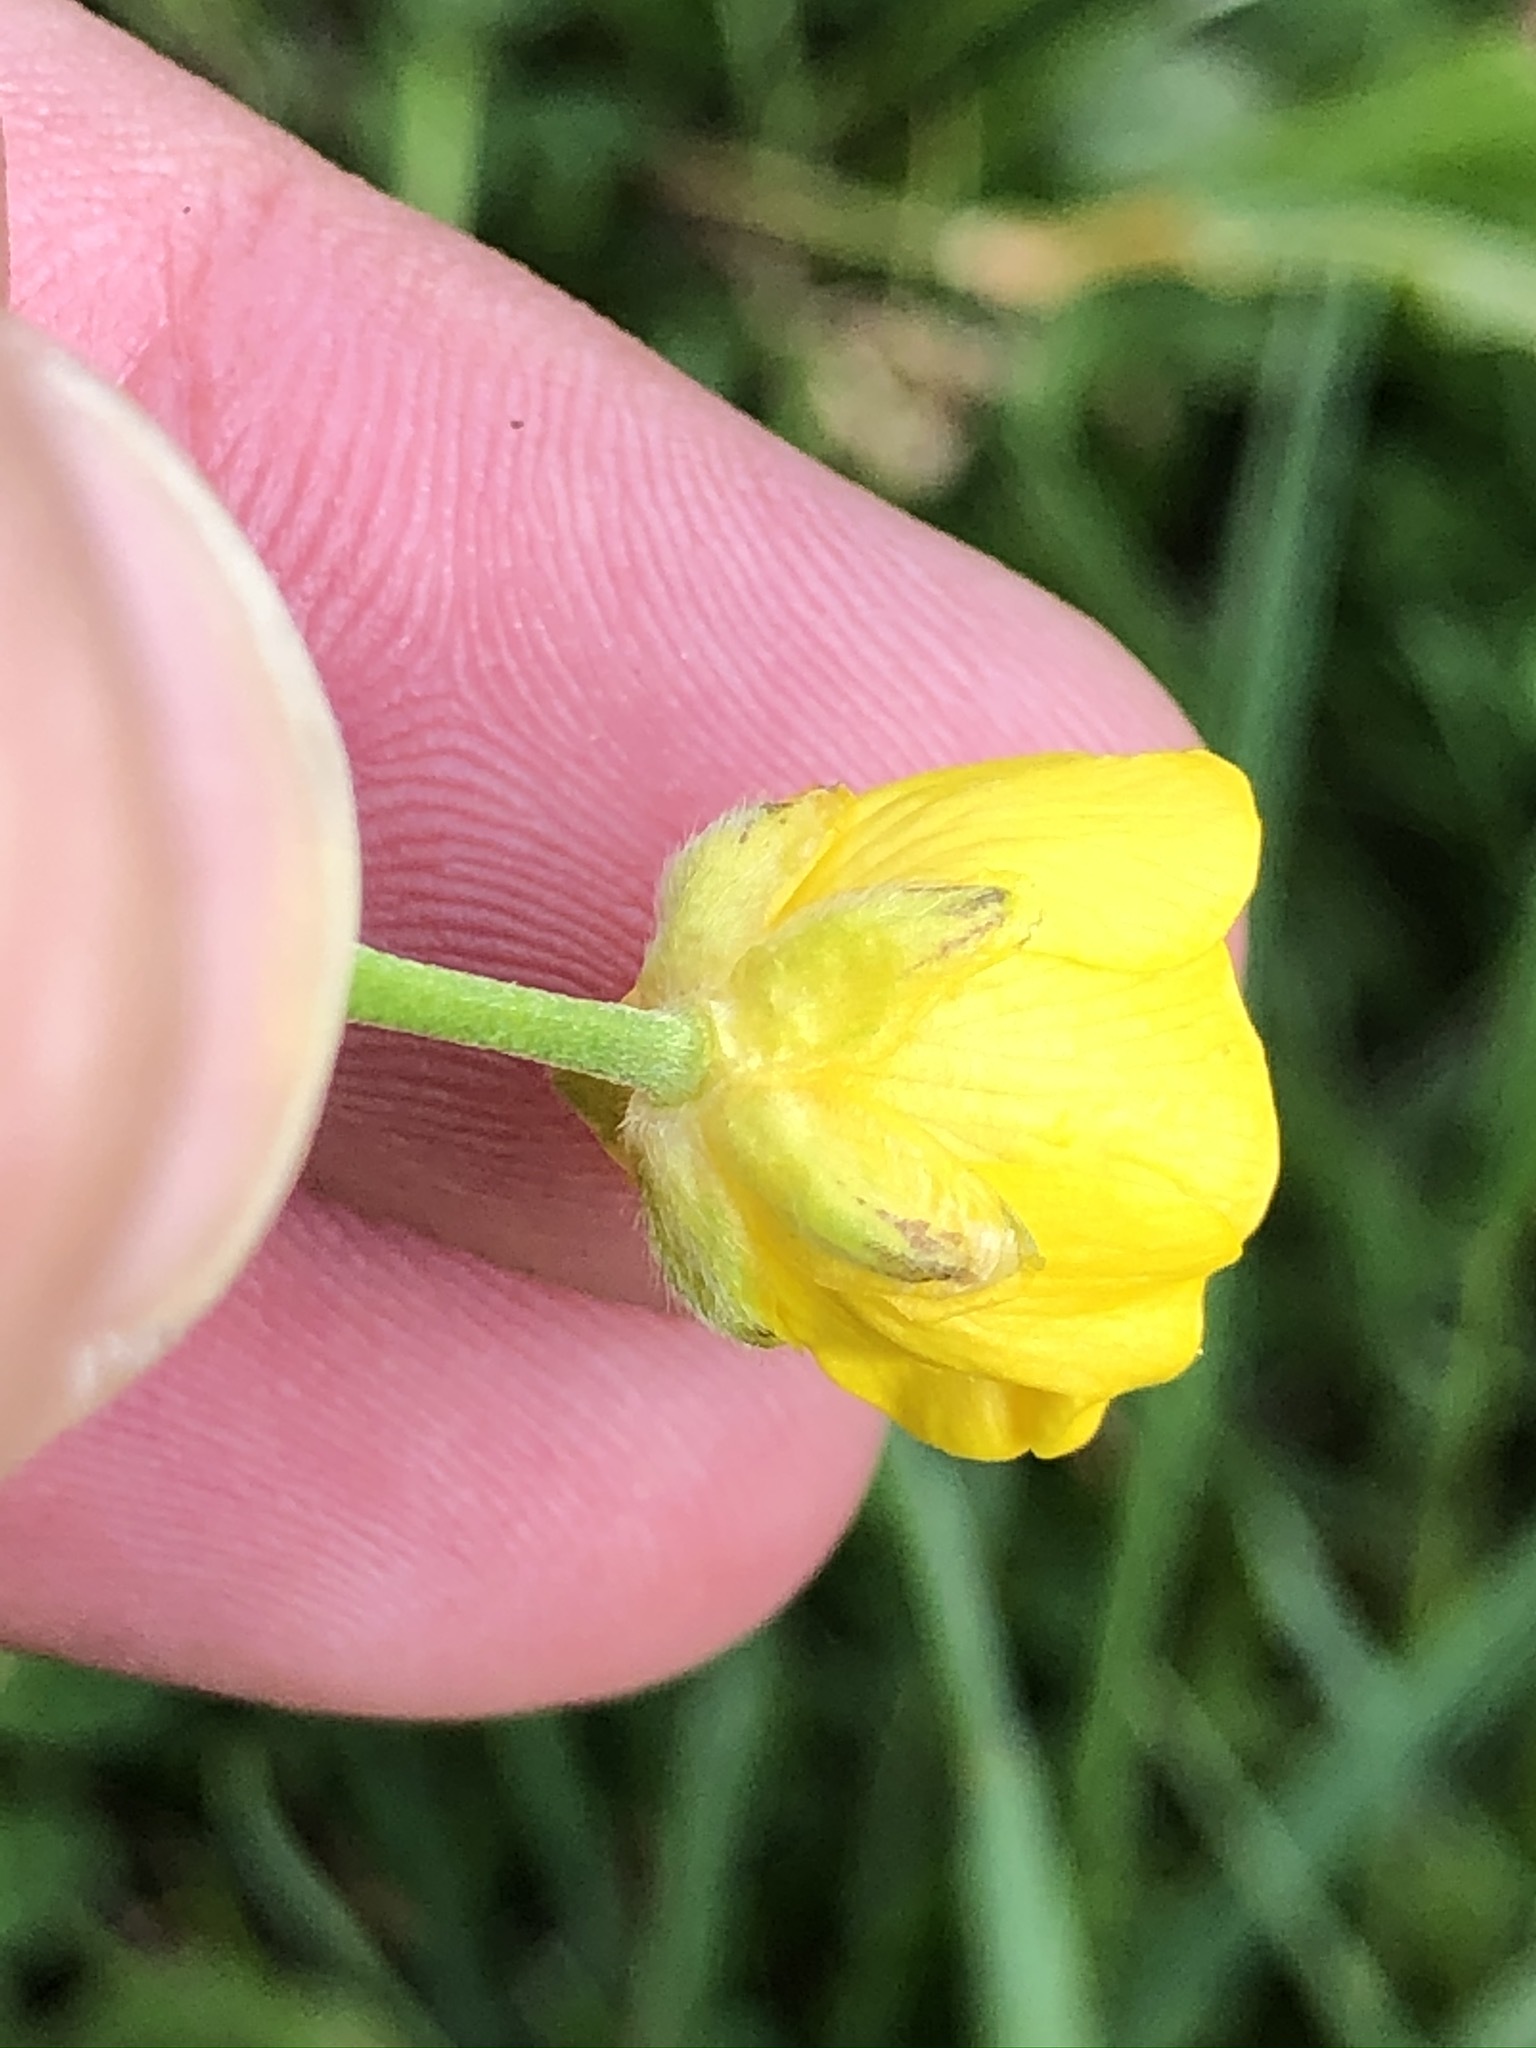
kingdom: Plantae
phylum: Tracheophyta
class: Magnoliopsida
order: Ranunculales
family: Ranunculaceae
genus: Ranunculus
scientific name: Ranunculus acris
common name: Meadow buttercup
